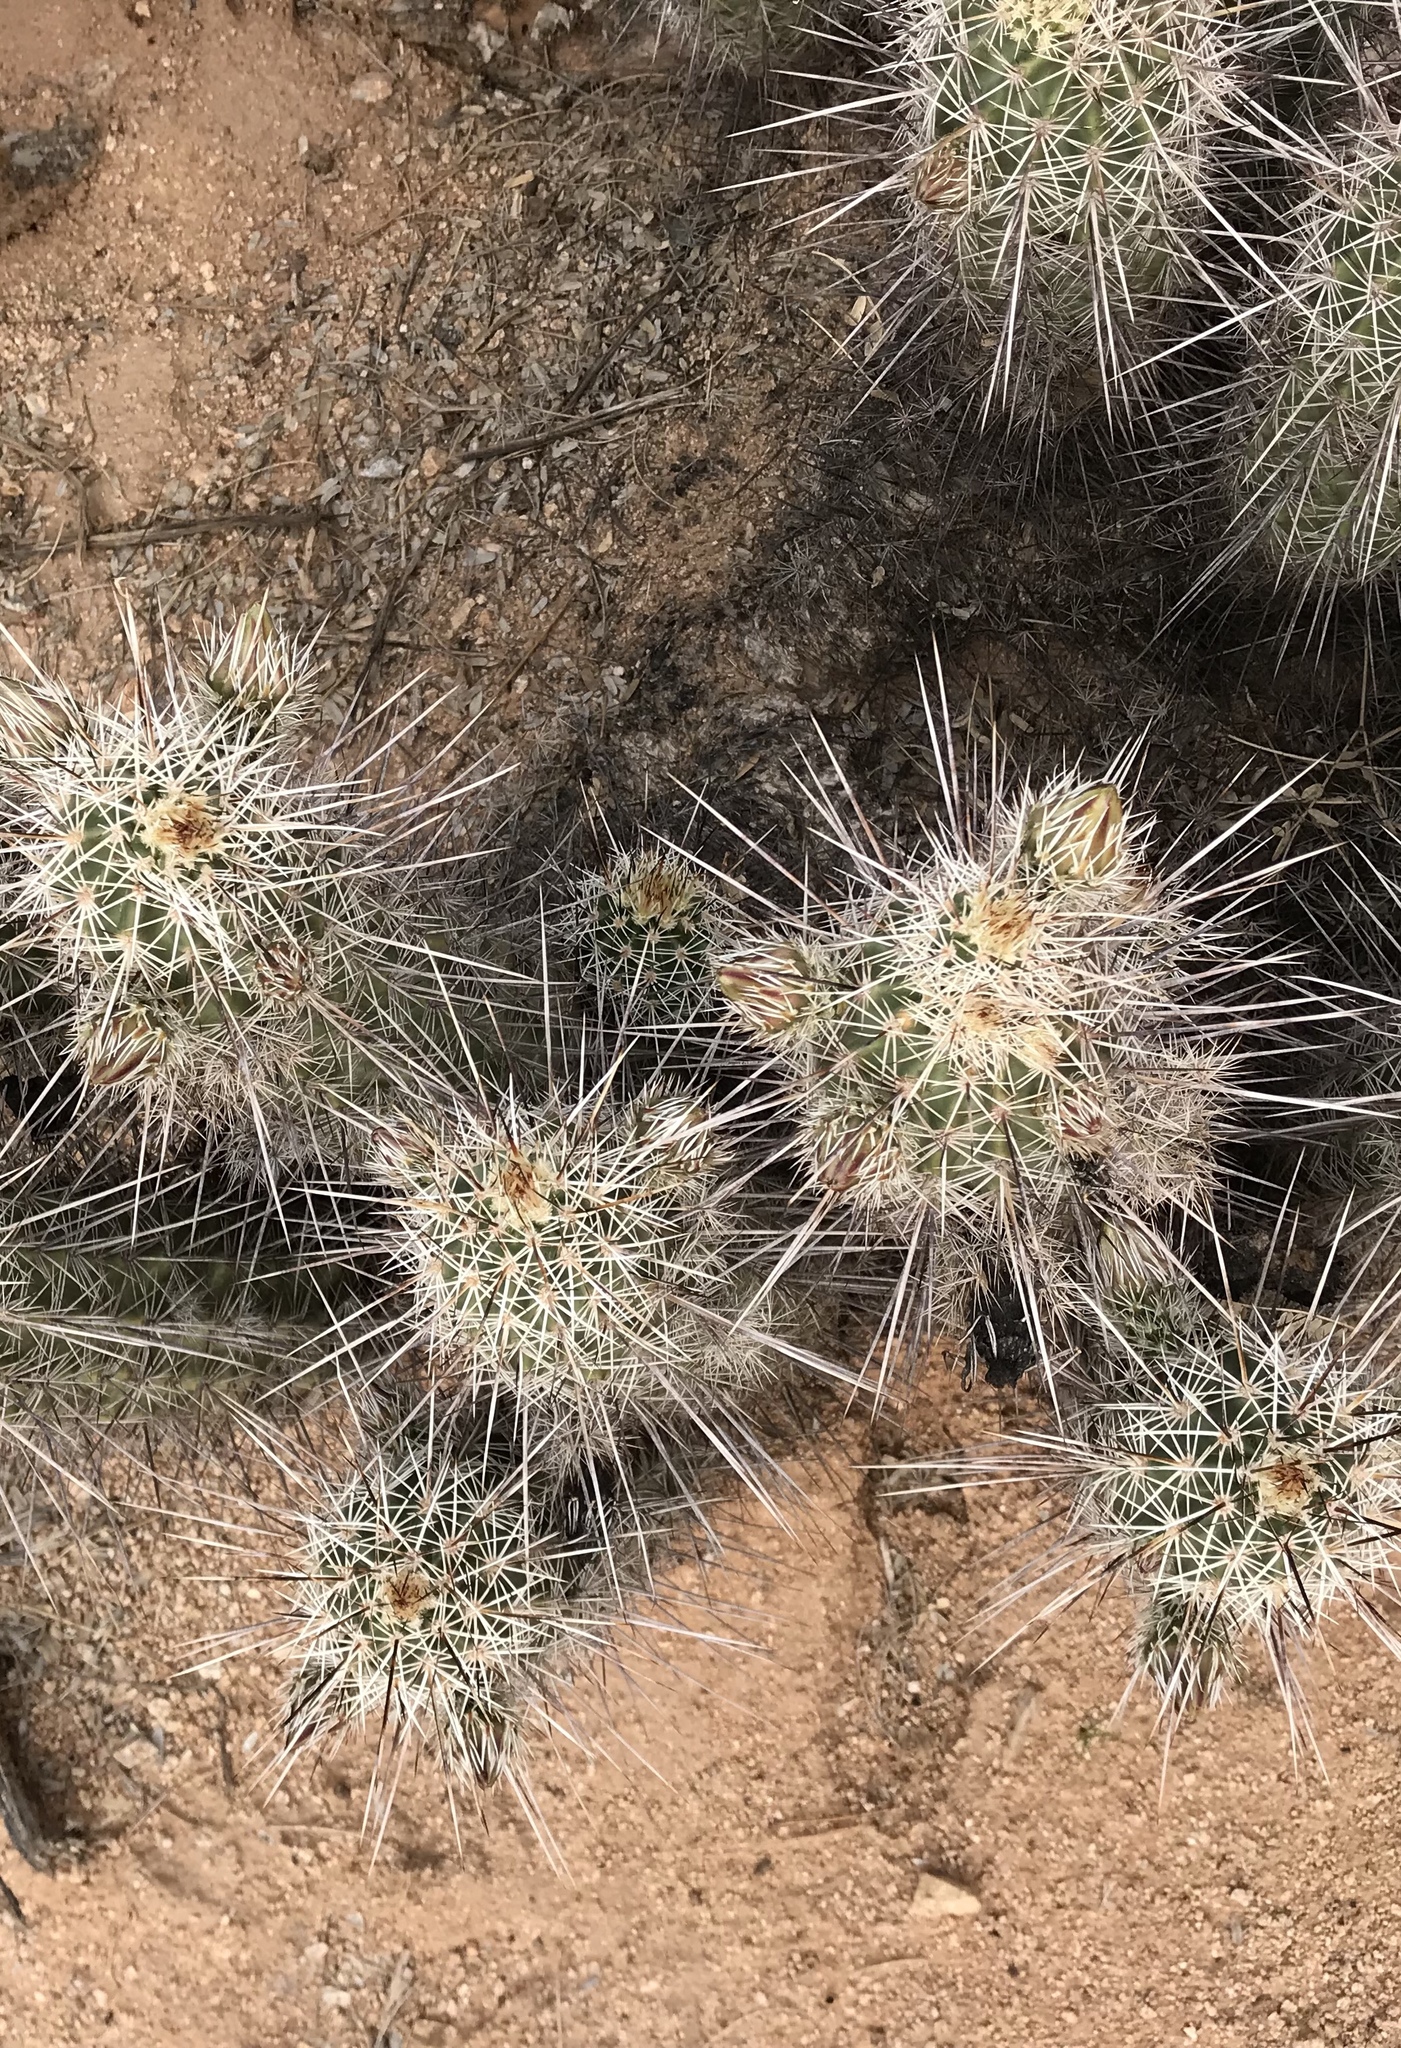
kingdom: Plantae
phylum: Tracheophyta
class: Magnoliopsida
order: Caryophyllales
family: Cactaceae
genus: Echinocereus
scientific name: Echinocereus fasciculatus
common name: Bundle hedgehog
